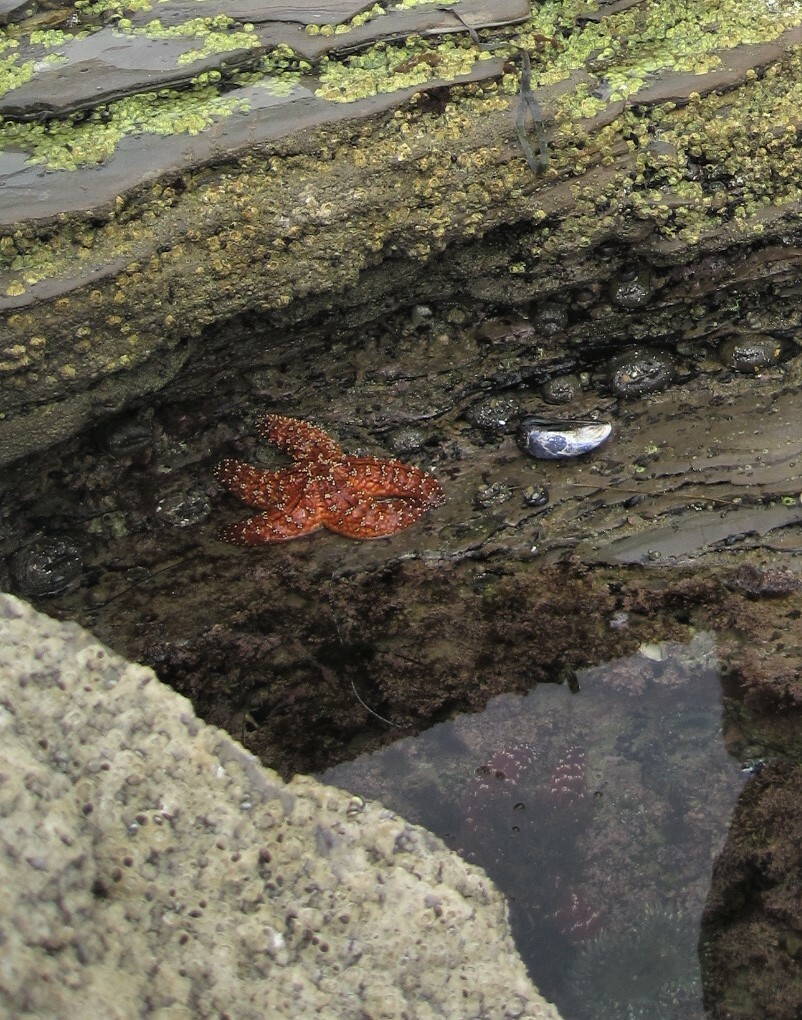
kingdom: Animalia
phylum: Echinodermata
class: Asteroidea
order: Forcipulatida
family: Asteriidae
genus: Pisaster
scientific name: Pisaster ochraceus
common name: Ochre stars
